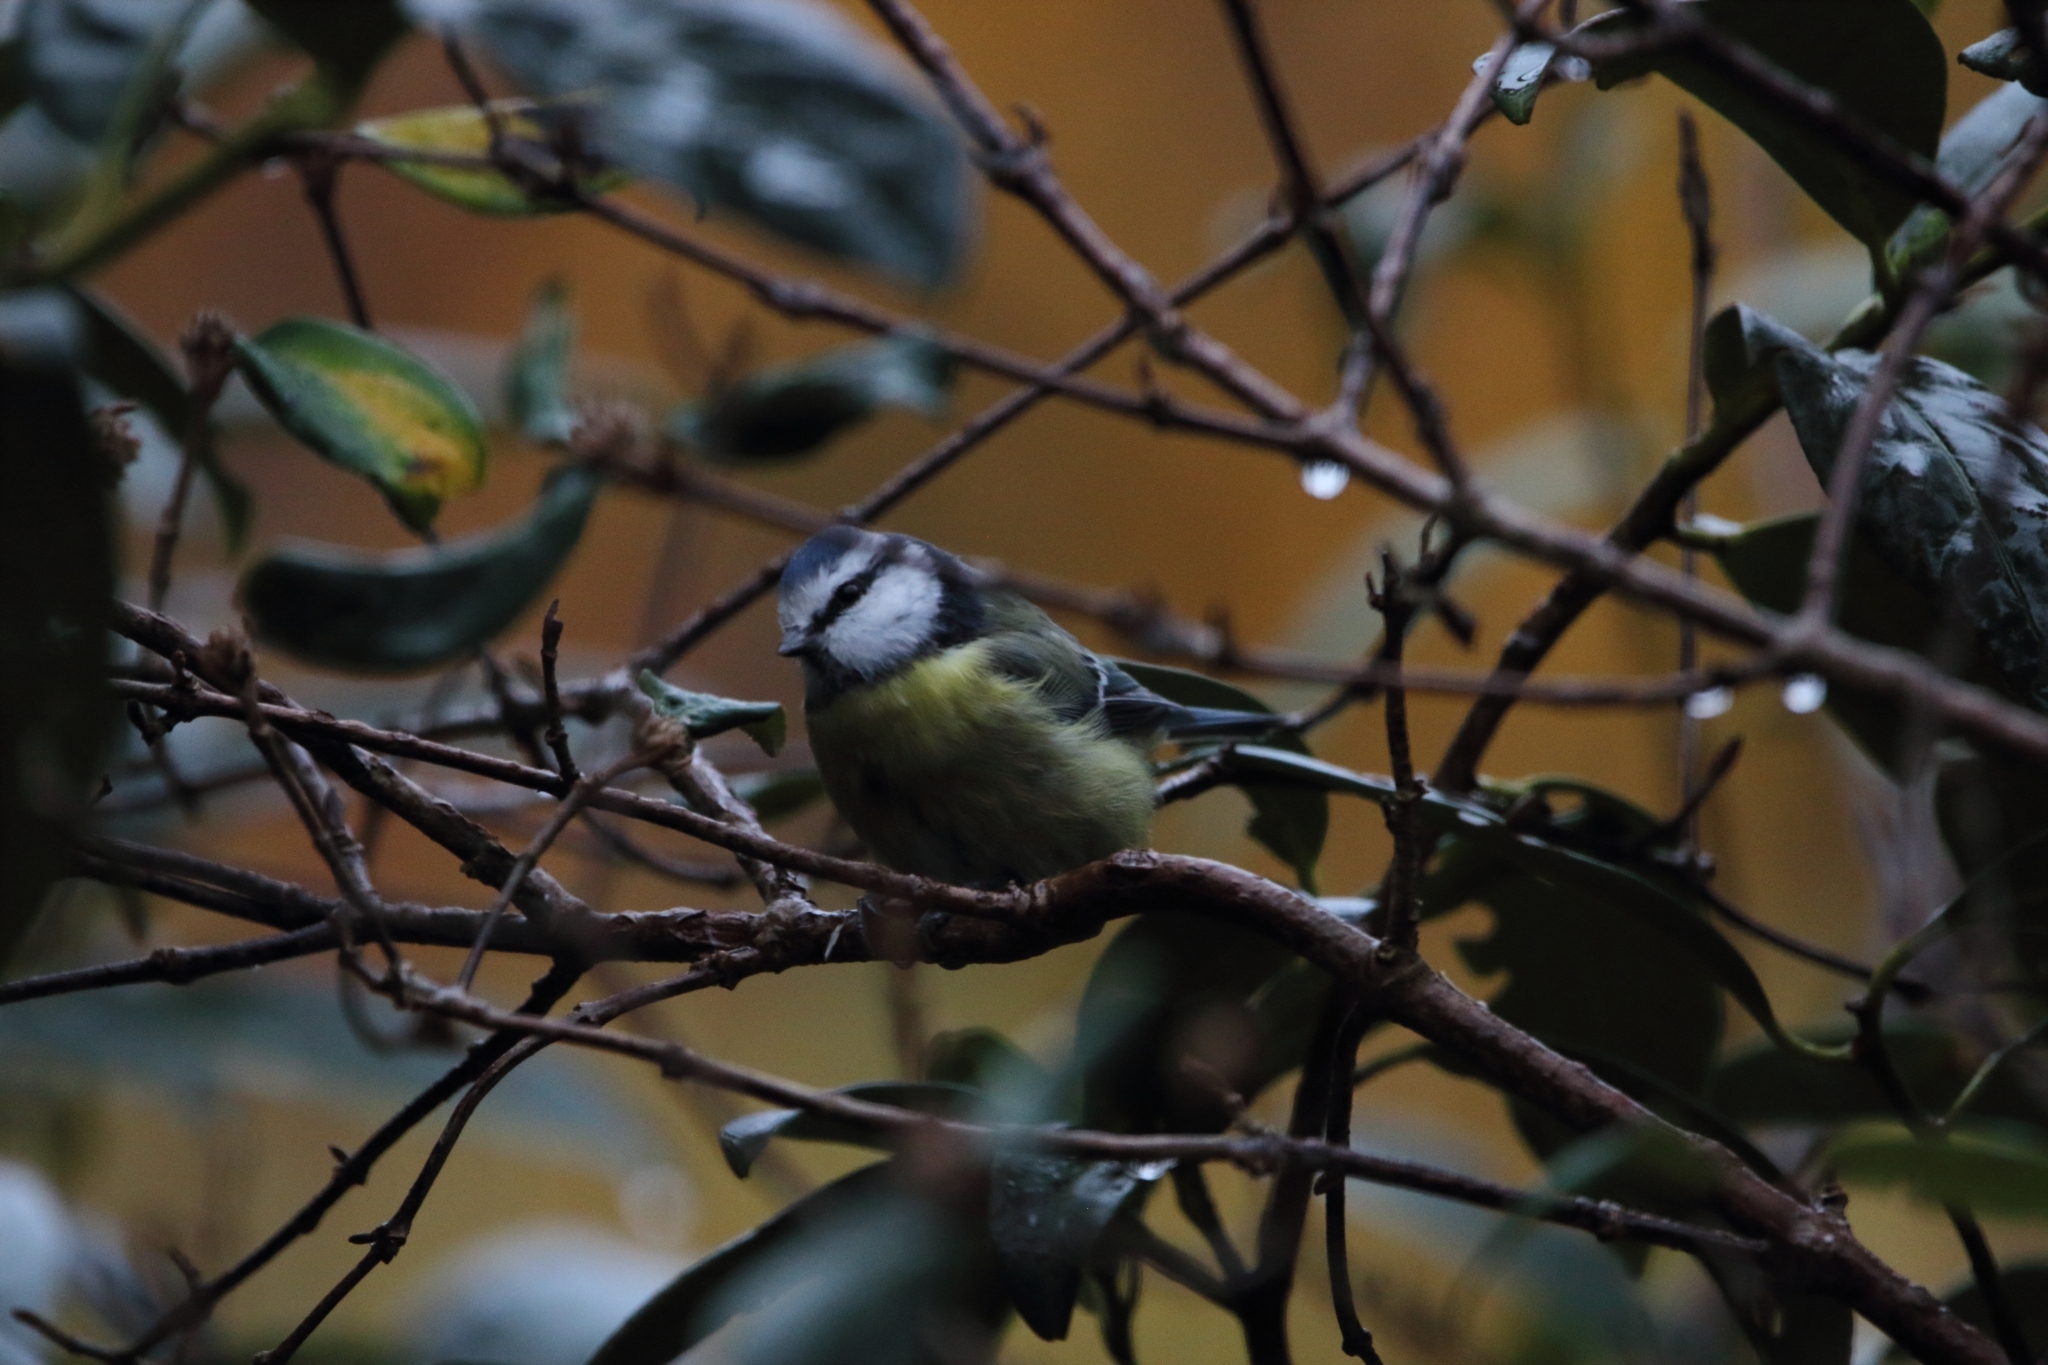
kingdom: Animalia
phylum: Chordata
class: Aves
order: Passeriformes
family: Paridae
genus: Cyanistes
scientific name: Cyanistes caeruleus
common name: Eurasian blue tit
